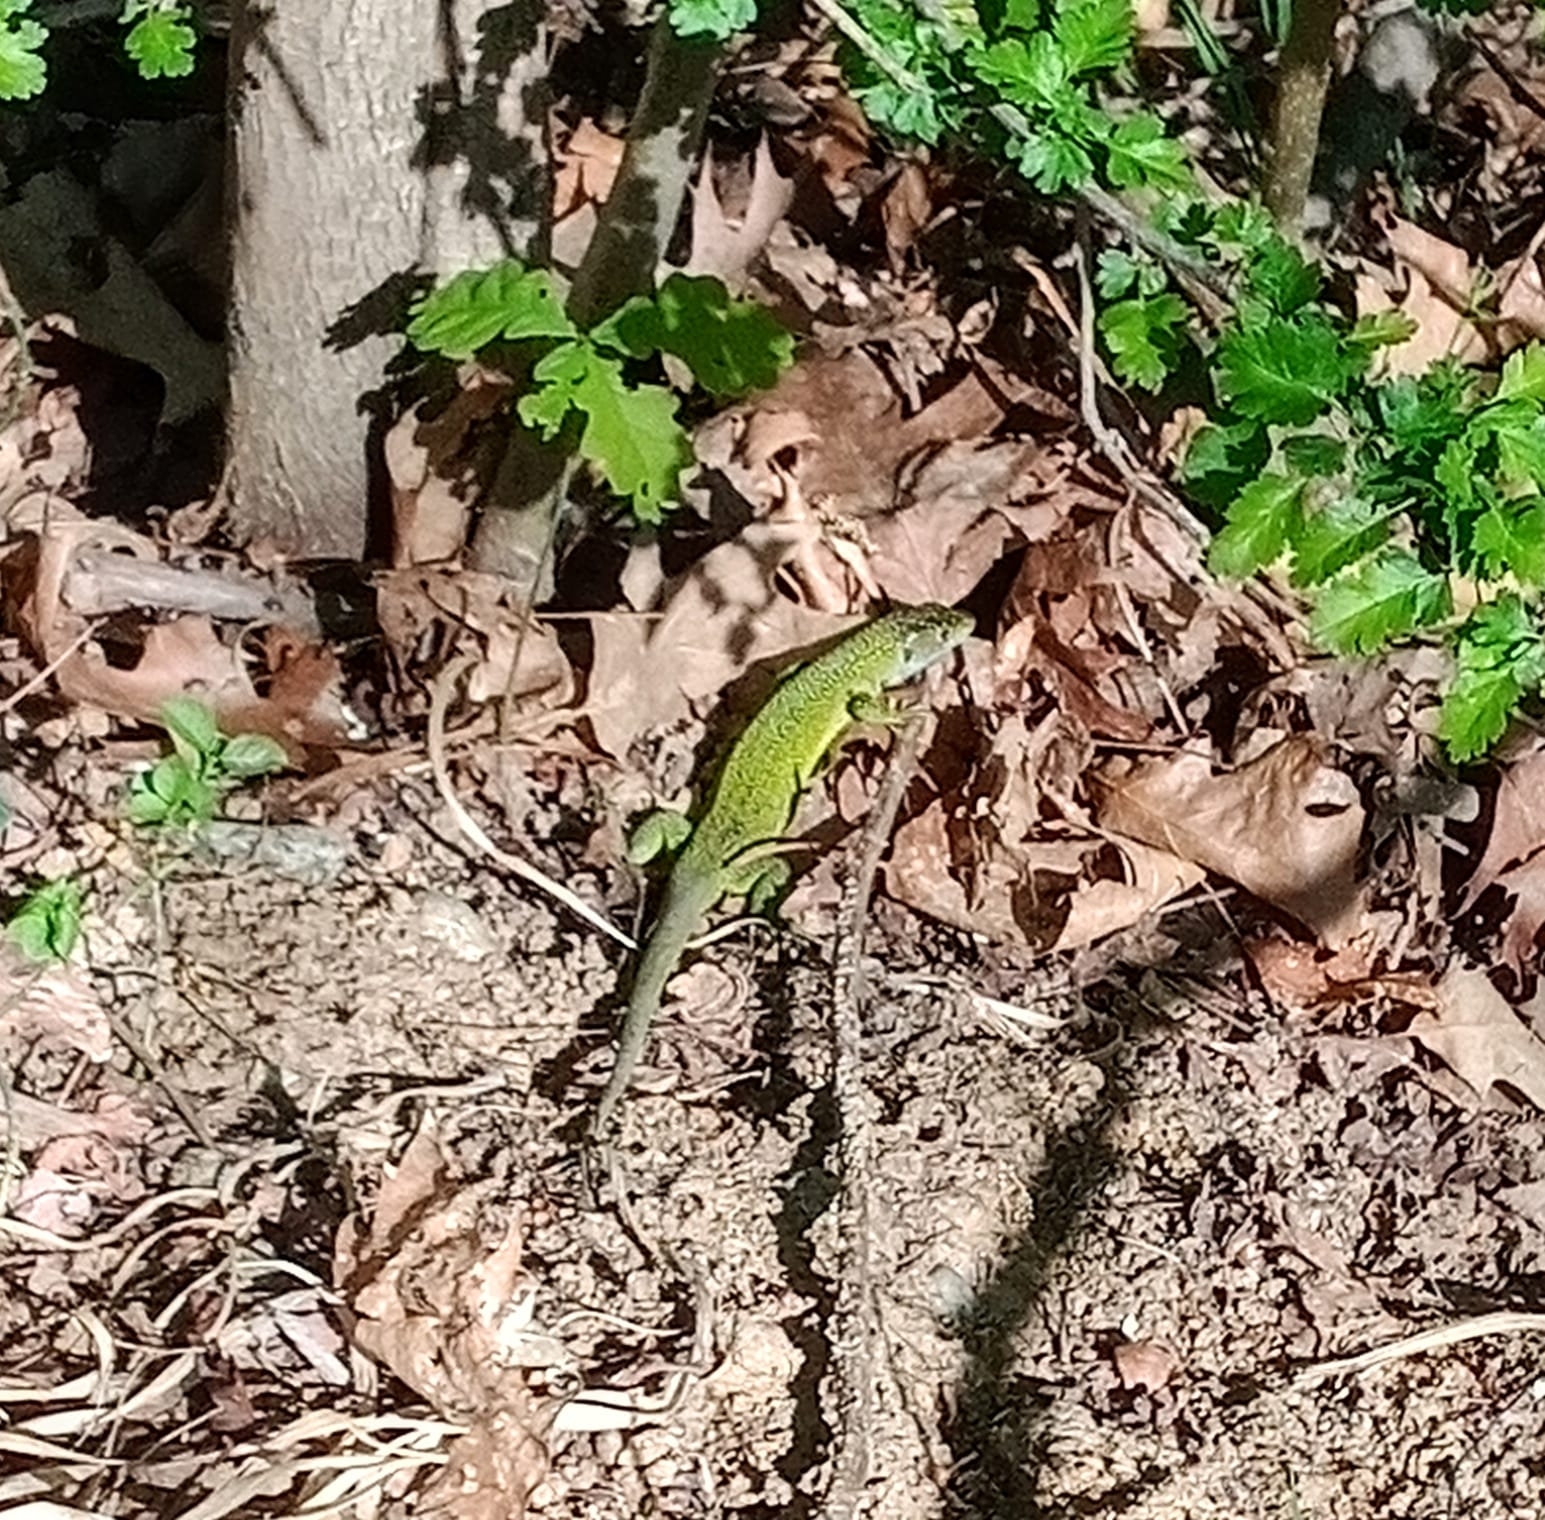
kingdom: Animalia
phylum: Chordata
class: Squamata
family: Lacertidae
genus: Lacerta
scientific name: Lacerta bilineata
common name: Western green lizard
